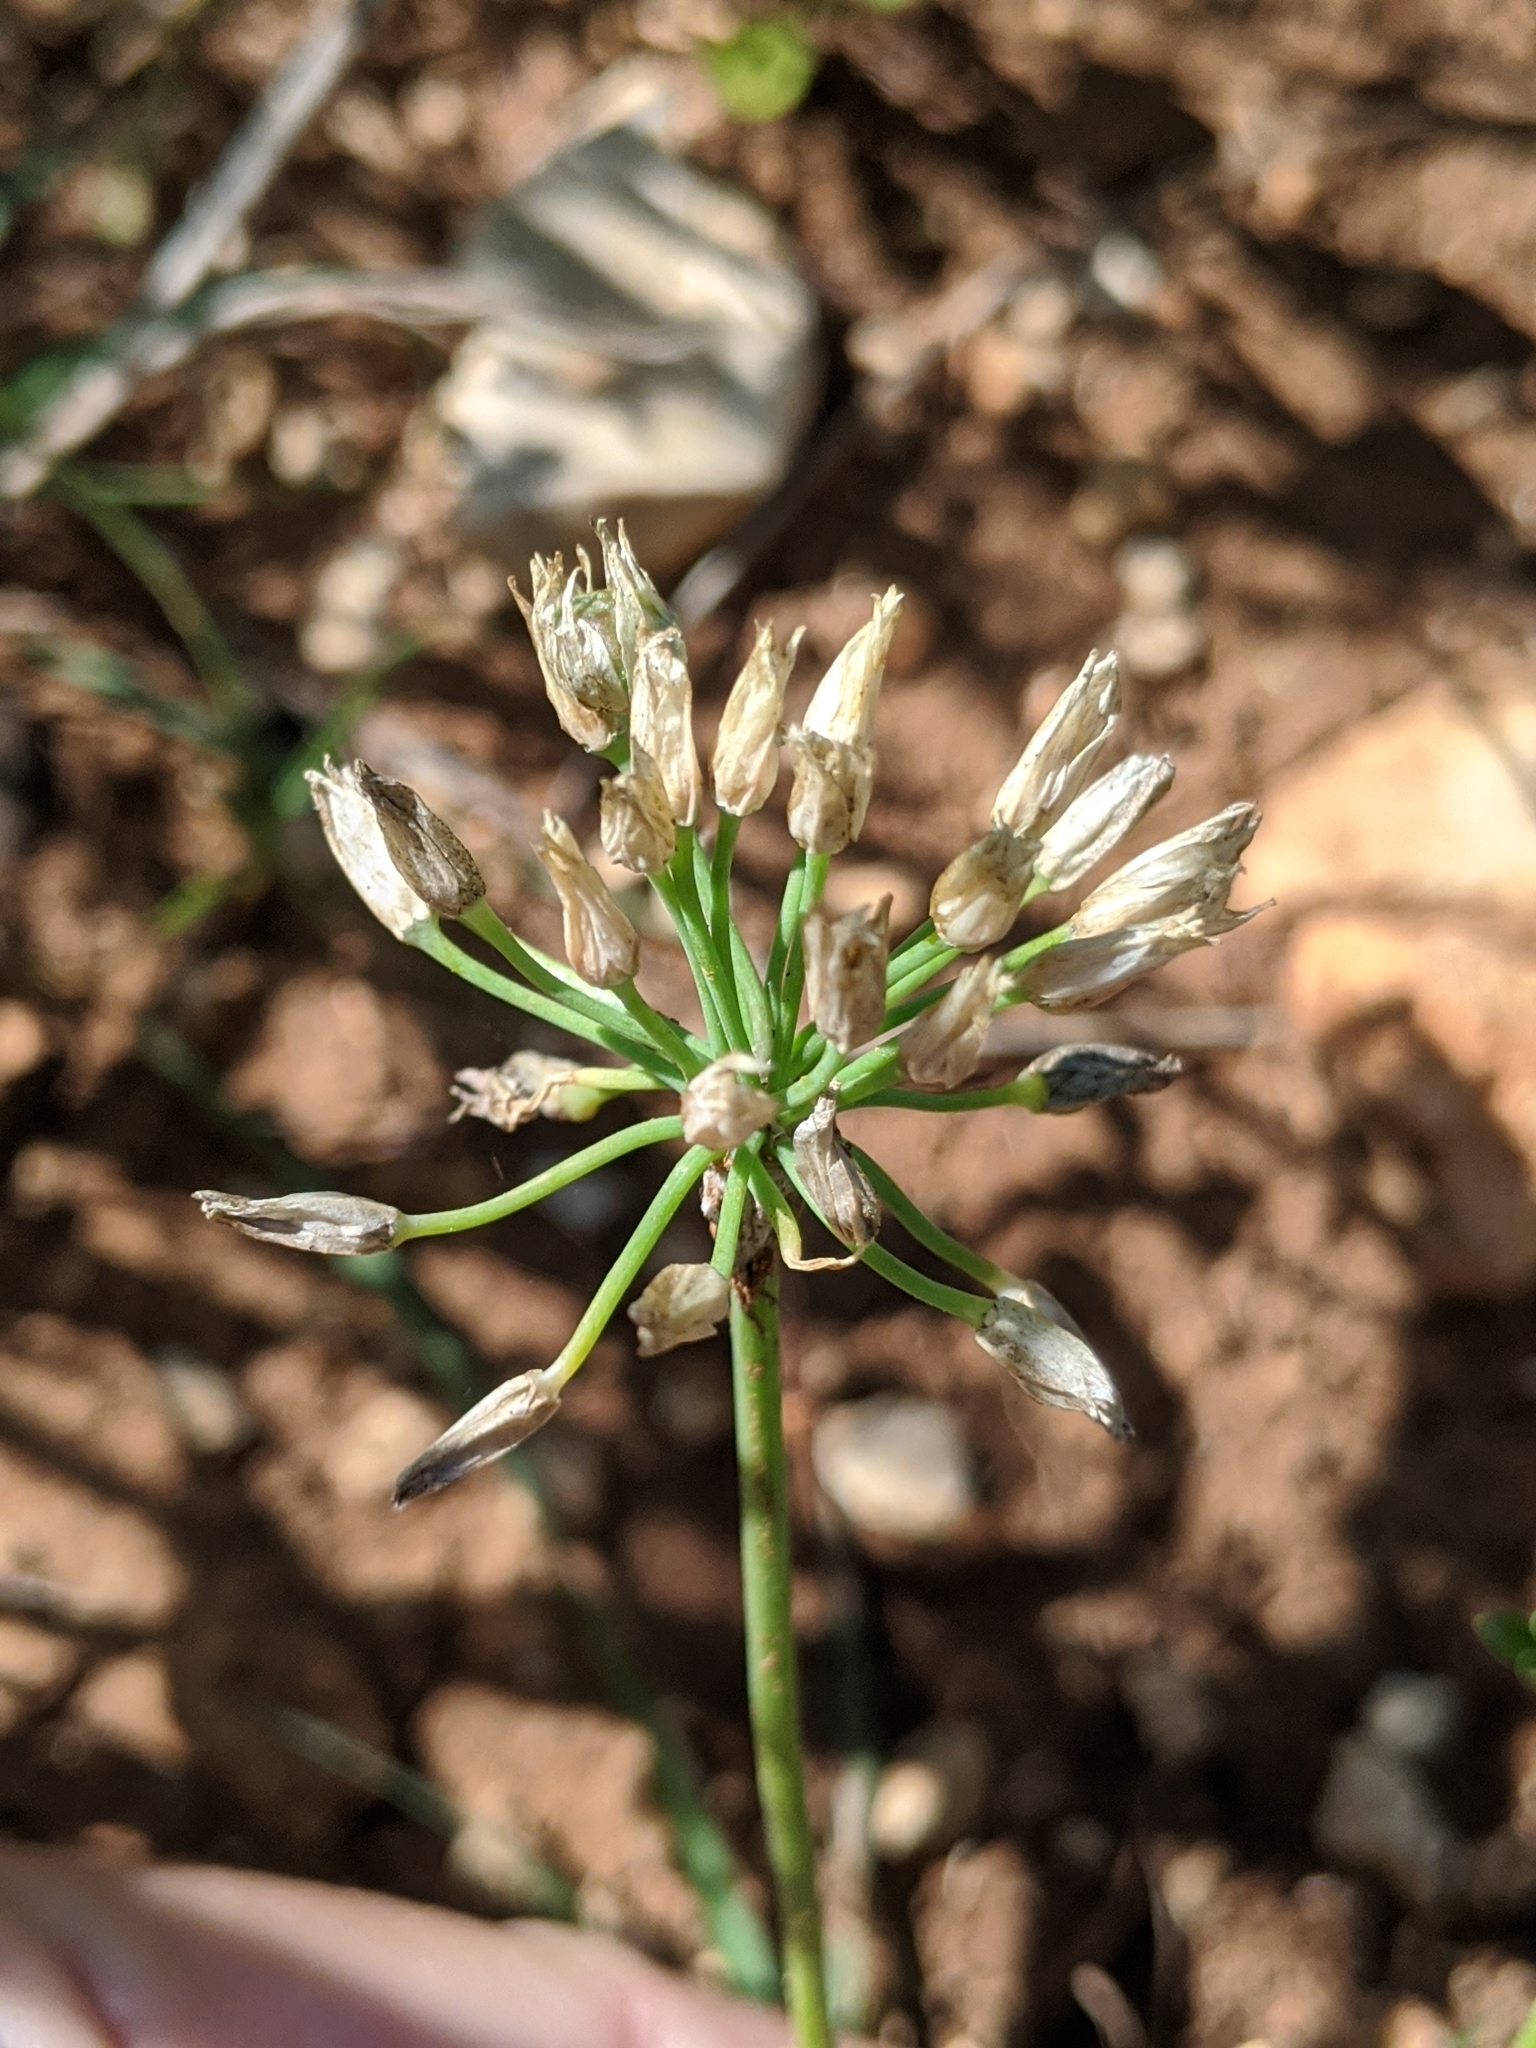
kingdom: Plantae
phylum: Tracheophyta
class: Liliopsida
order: Asparagales
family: Amaryllidaceae
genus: Allium
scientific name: Allium drummondii
